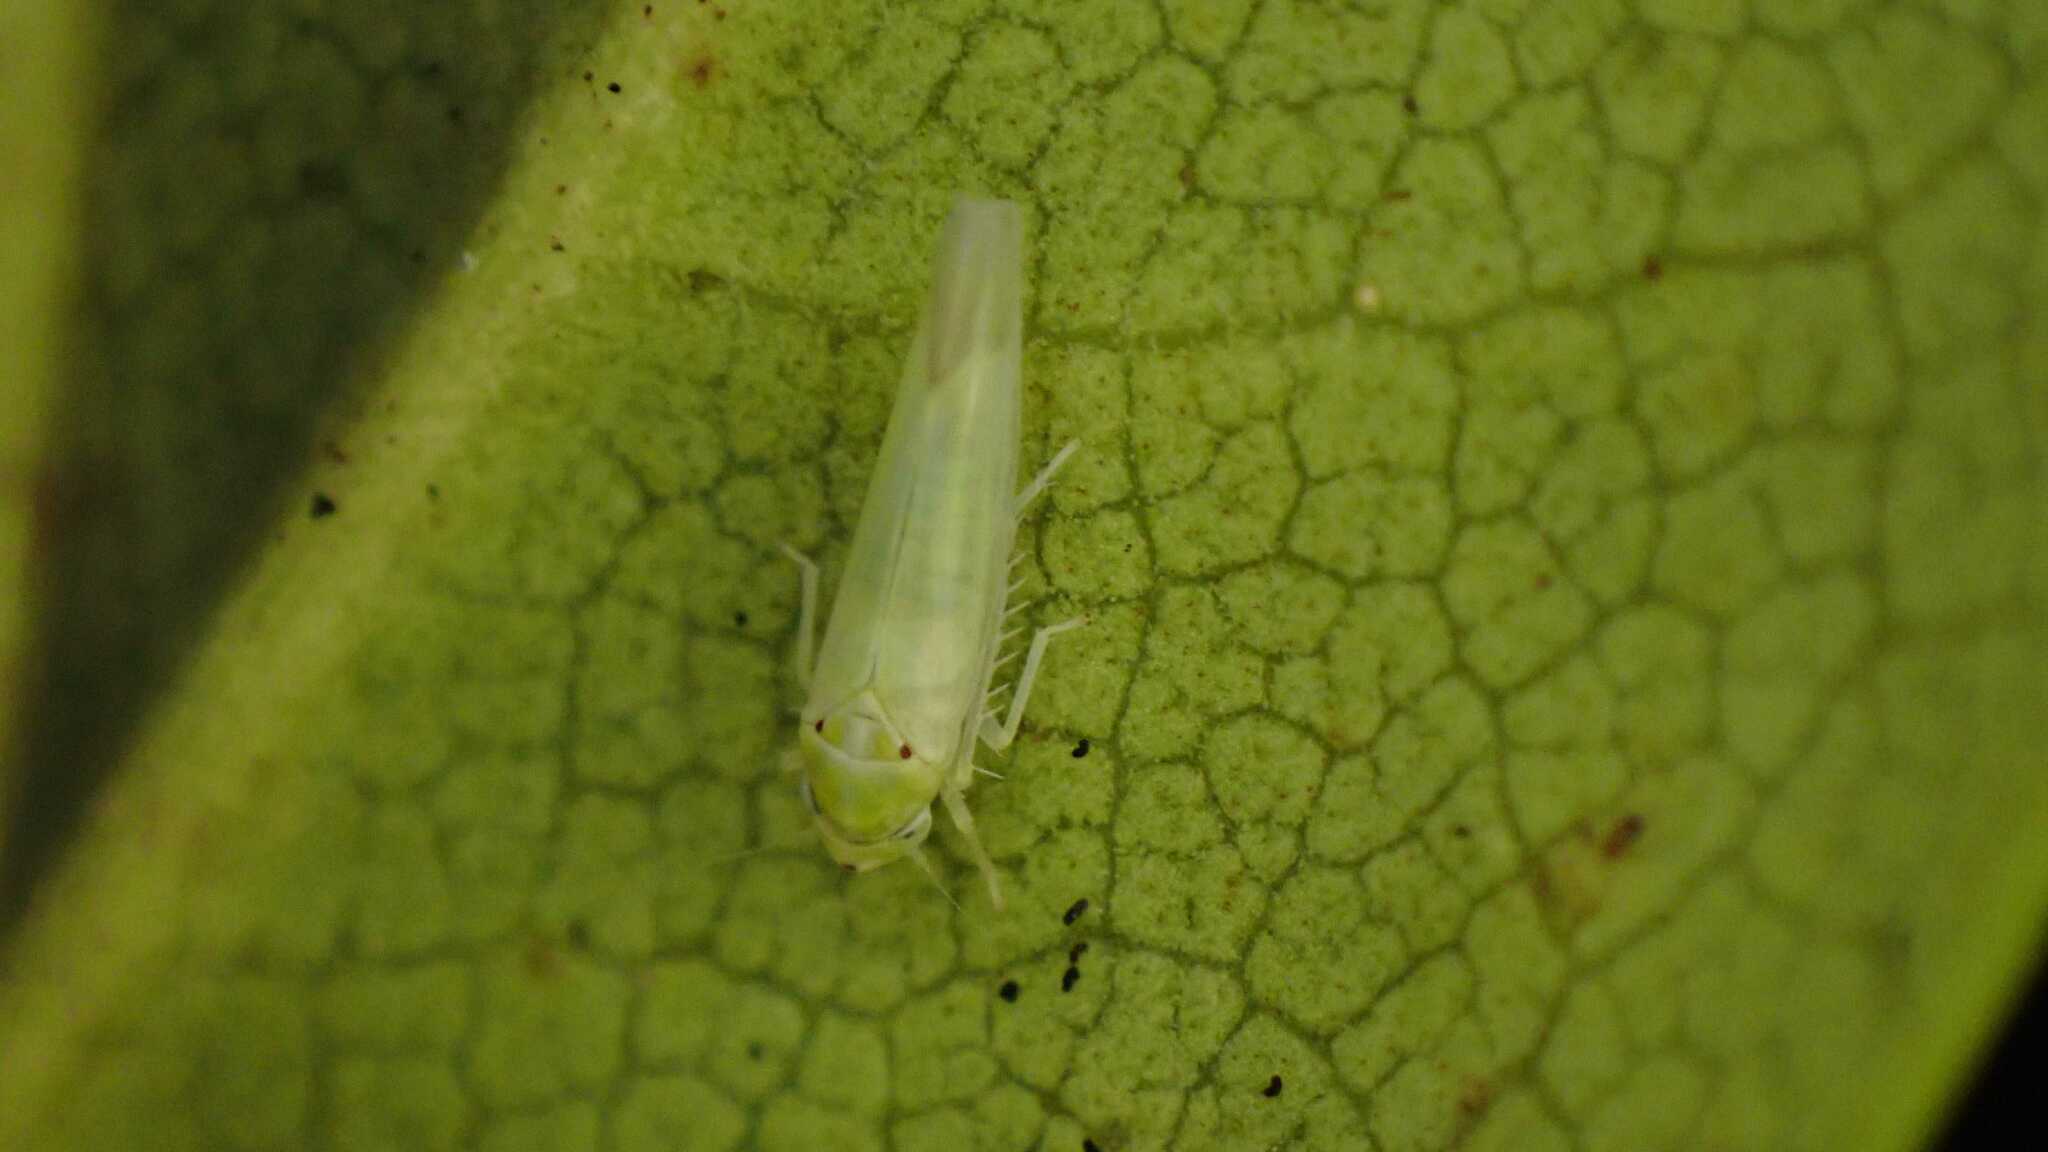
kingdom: Animalia
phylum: Arthropoda
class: Insecta
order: Hemiptera
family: Cicadellidae
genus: Zygina
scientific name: Zygina nivea
